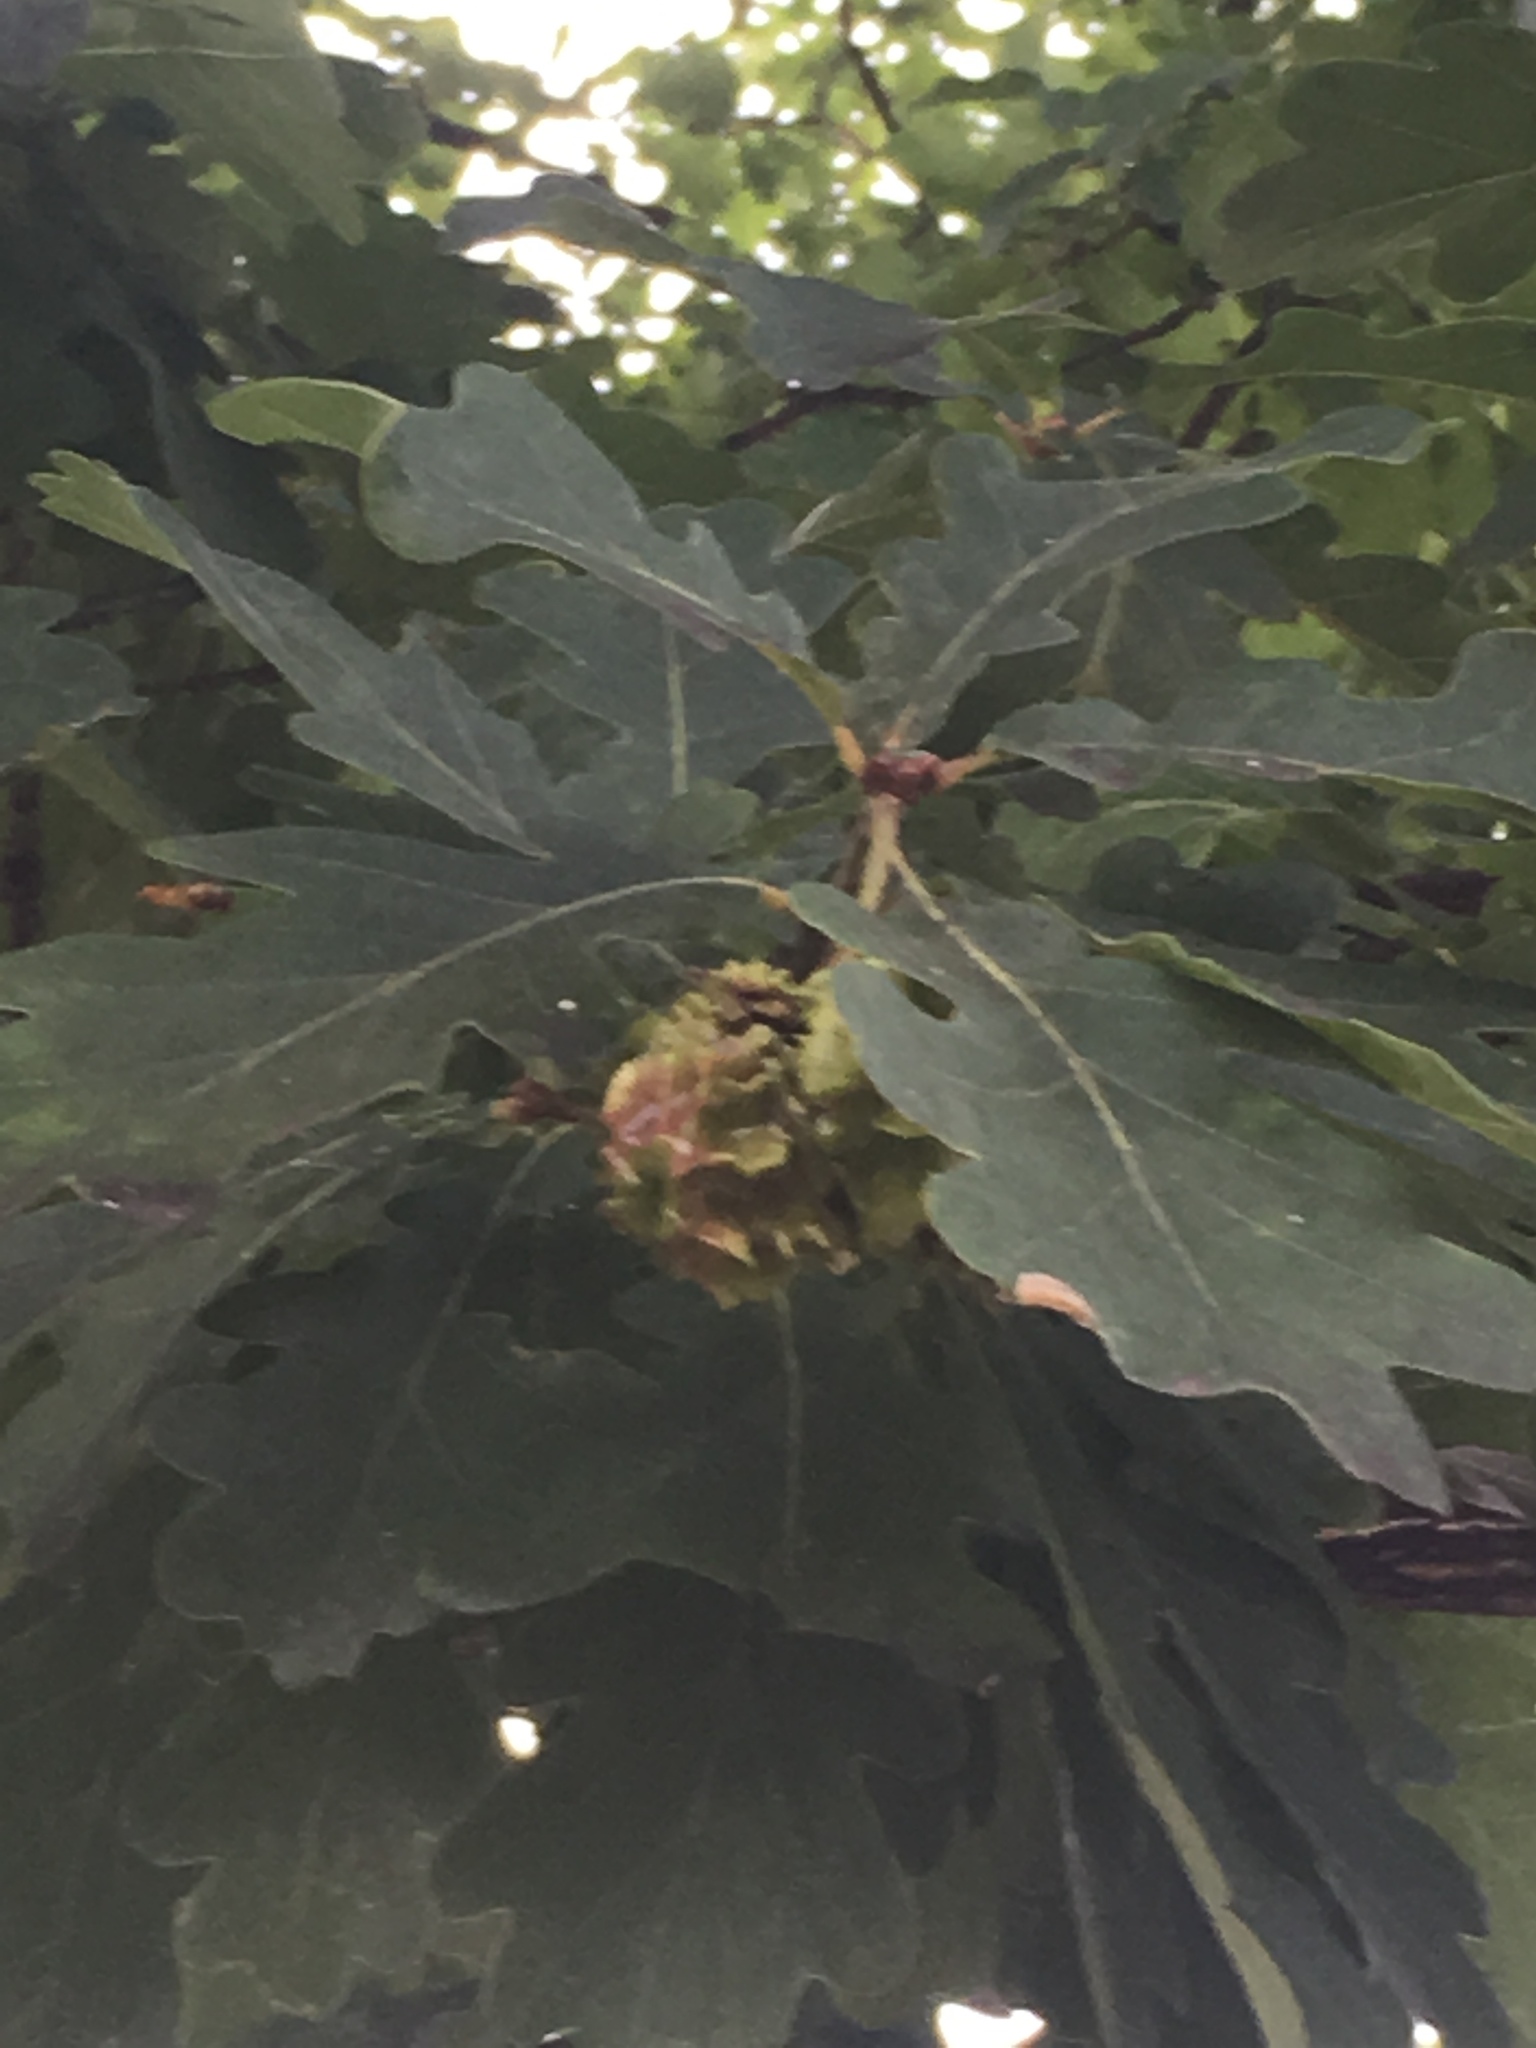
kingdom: Plantae
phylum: Tracheophyta
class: Magnoliopsida
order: Fagales
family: Fagaceae
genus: Quercus
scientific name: Quercus petraea
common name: Sessile oak
